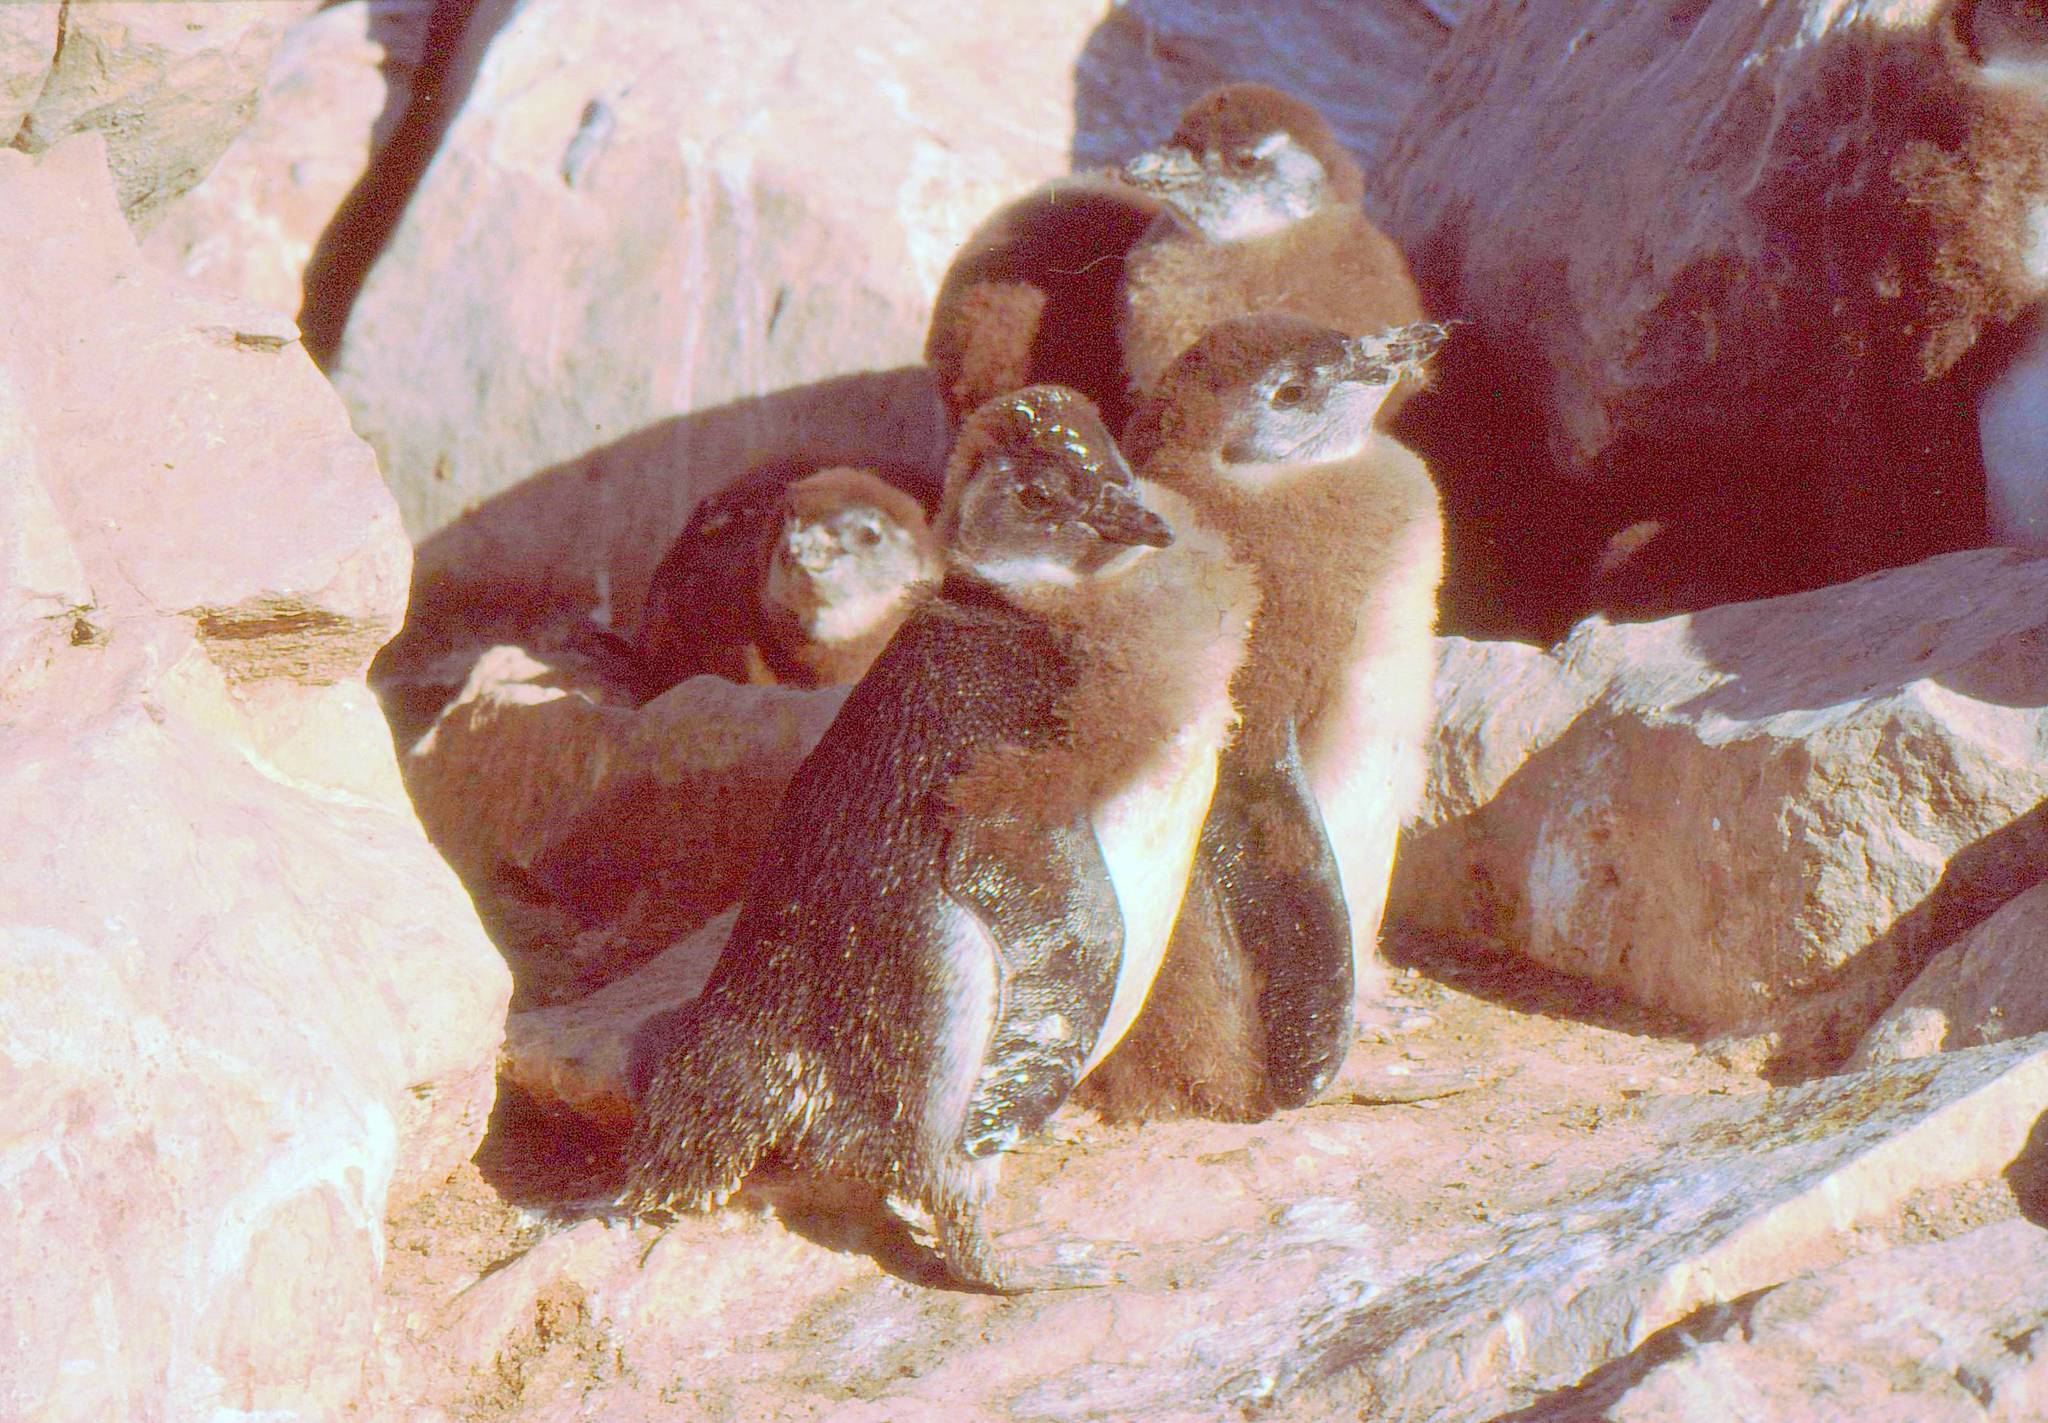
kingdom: Animalia
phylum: Chordata
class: Aves
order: Sphenisciformes
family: Spheniscidae
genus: Spheniscus
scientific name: Spheniscus demersus
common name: African penguin
